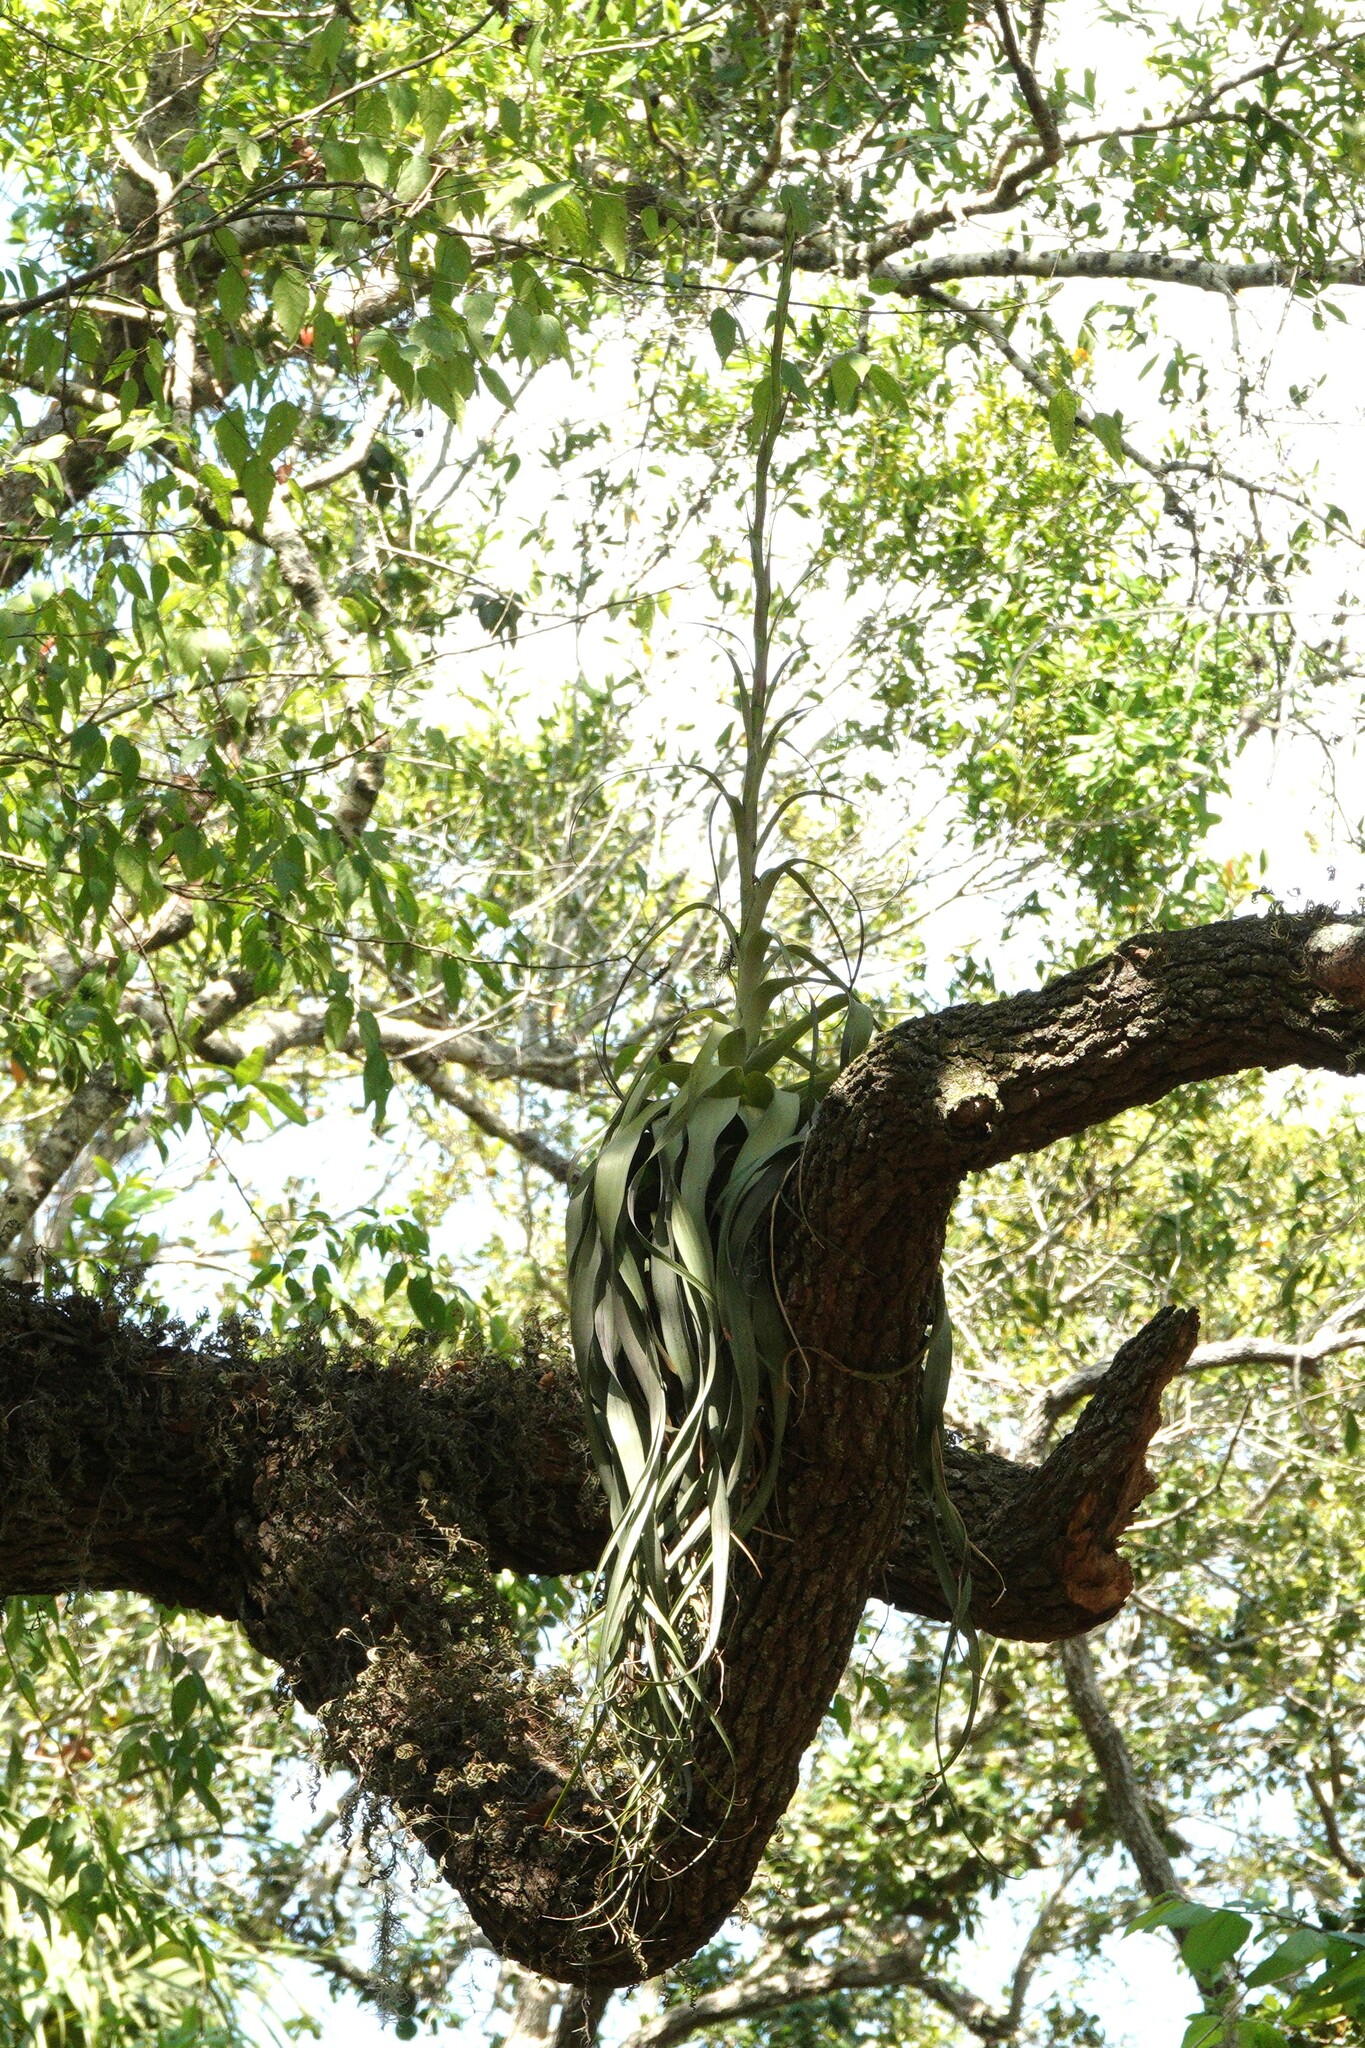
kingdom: Plantae
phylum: Tracheophyta
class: Liliopsida
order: Poales
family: Bromeliaceae
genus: Tillandsia
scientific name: Tillandsia utriculata
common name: Wild pine
